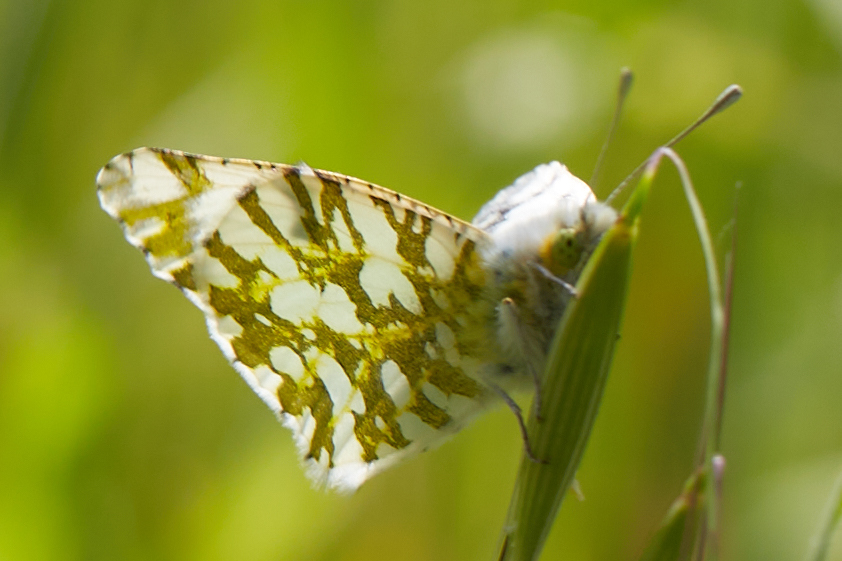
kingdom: Animalia
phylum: Arthropoda
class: Insecta
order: Lepidoptera
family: Pieridae
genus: Euchloe
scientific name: Euchloe ausonides
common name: Creamy marblewing
